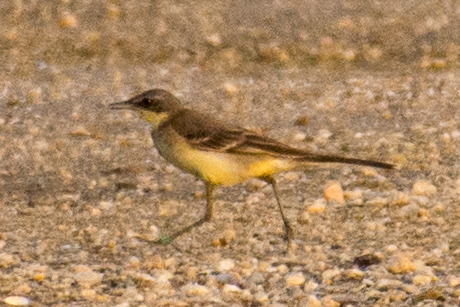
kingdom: Animalia
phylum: Chordata
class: Aves
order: Passeriformes
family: Motacillidae
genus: Motacilla
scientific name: Motacilla tschutschensis
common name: Eastern yellow wagtail
